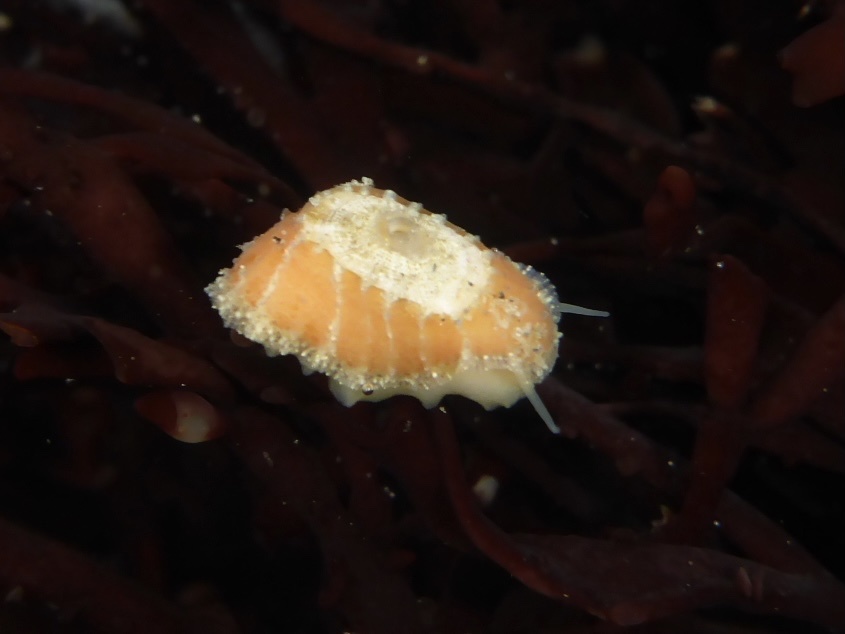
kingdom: Animalia
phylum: Mollusca
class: Gastropoda
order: Lepetellida
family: Fissurellidae
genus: Fissurellidea
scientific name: Fissurellidea bimaculata
